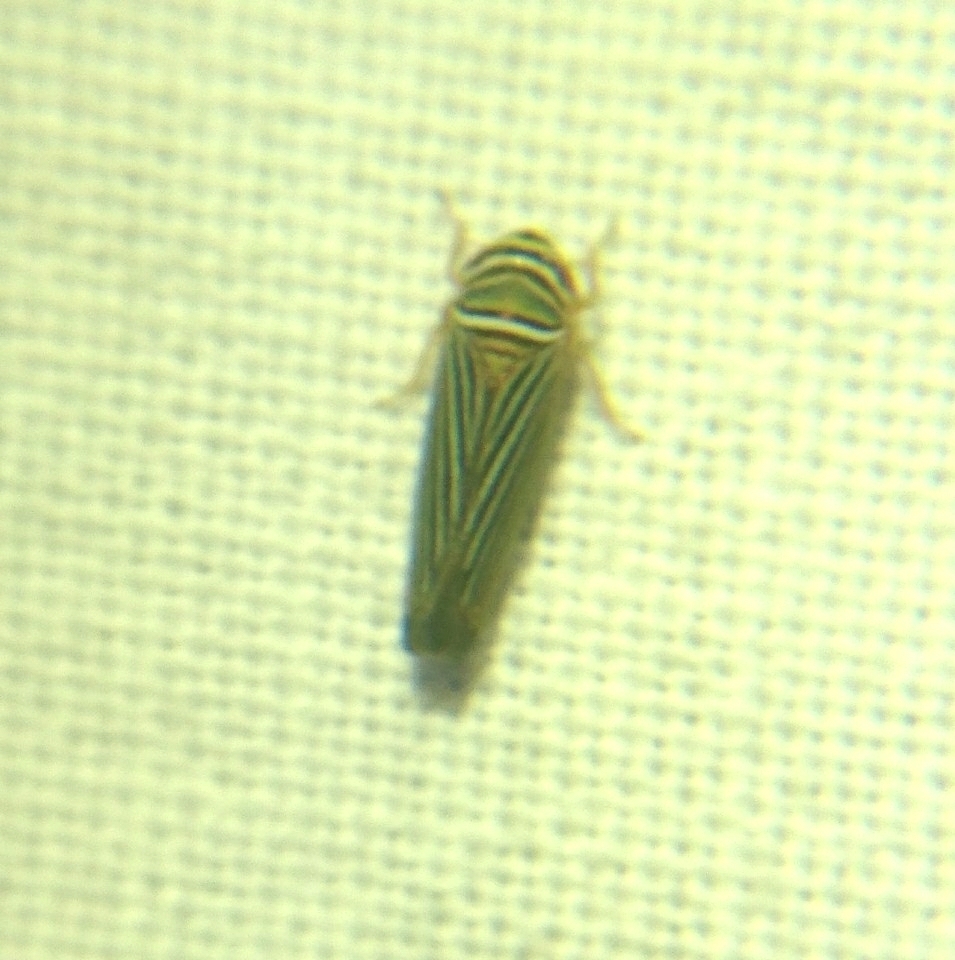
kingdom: Animalia
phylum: Arthropoda
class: Insecta
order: Hemiptera
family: Cicadellidae
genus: Tylozygus
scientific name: Tylozygus bifidus
